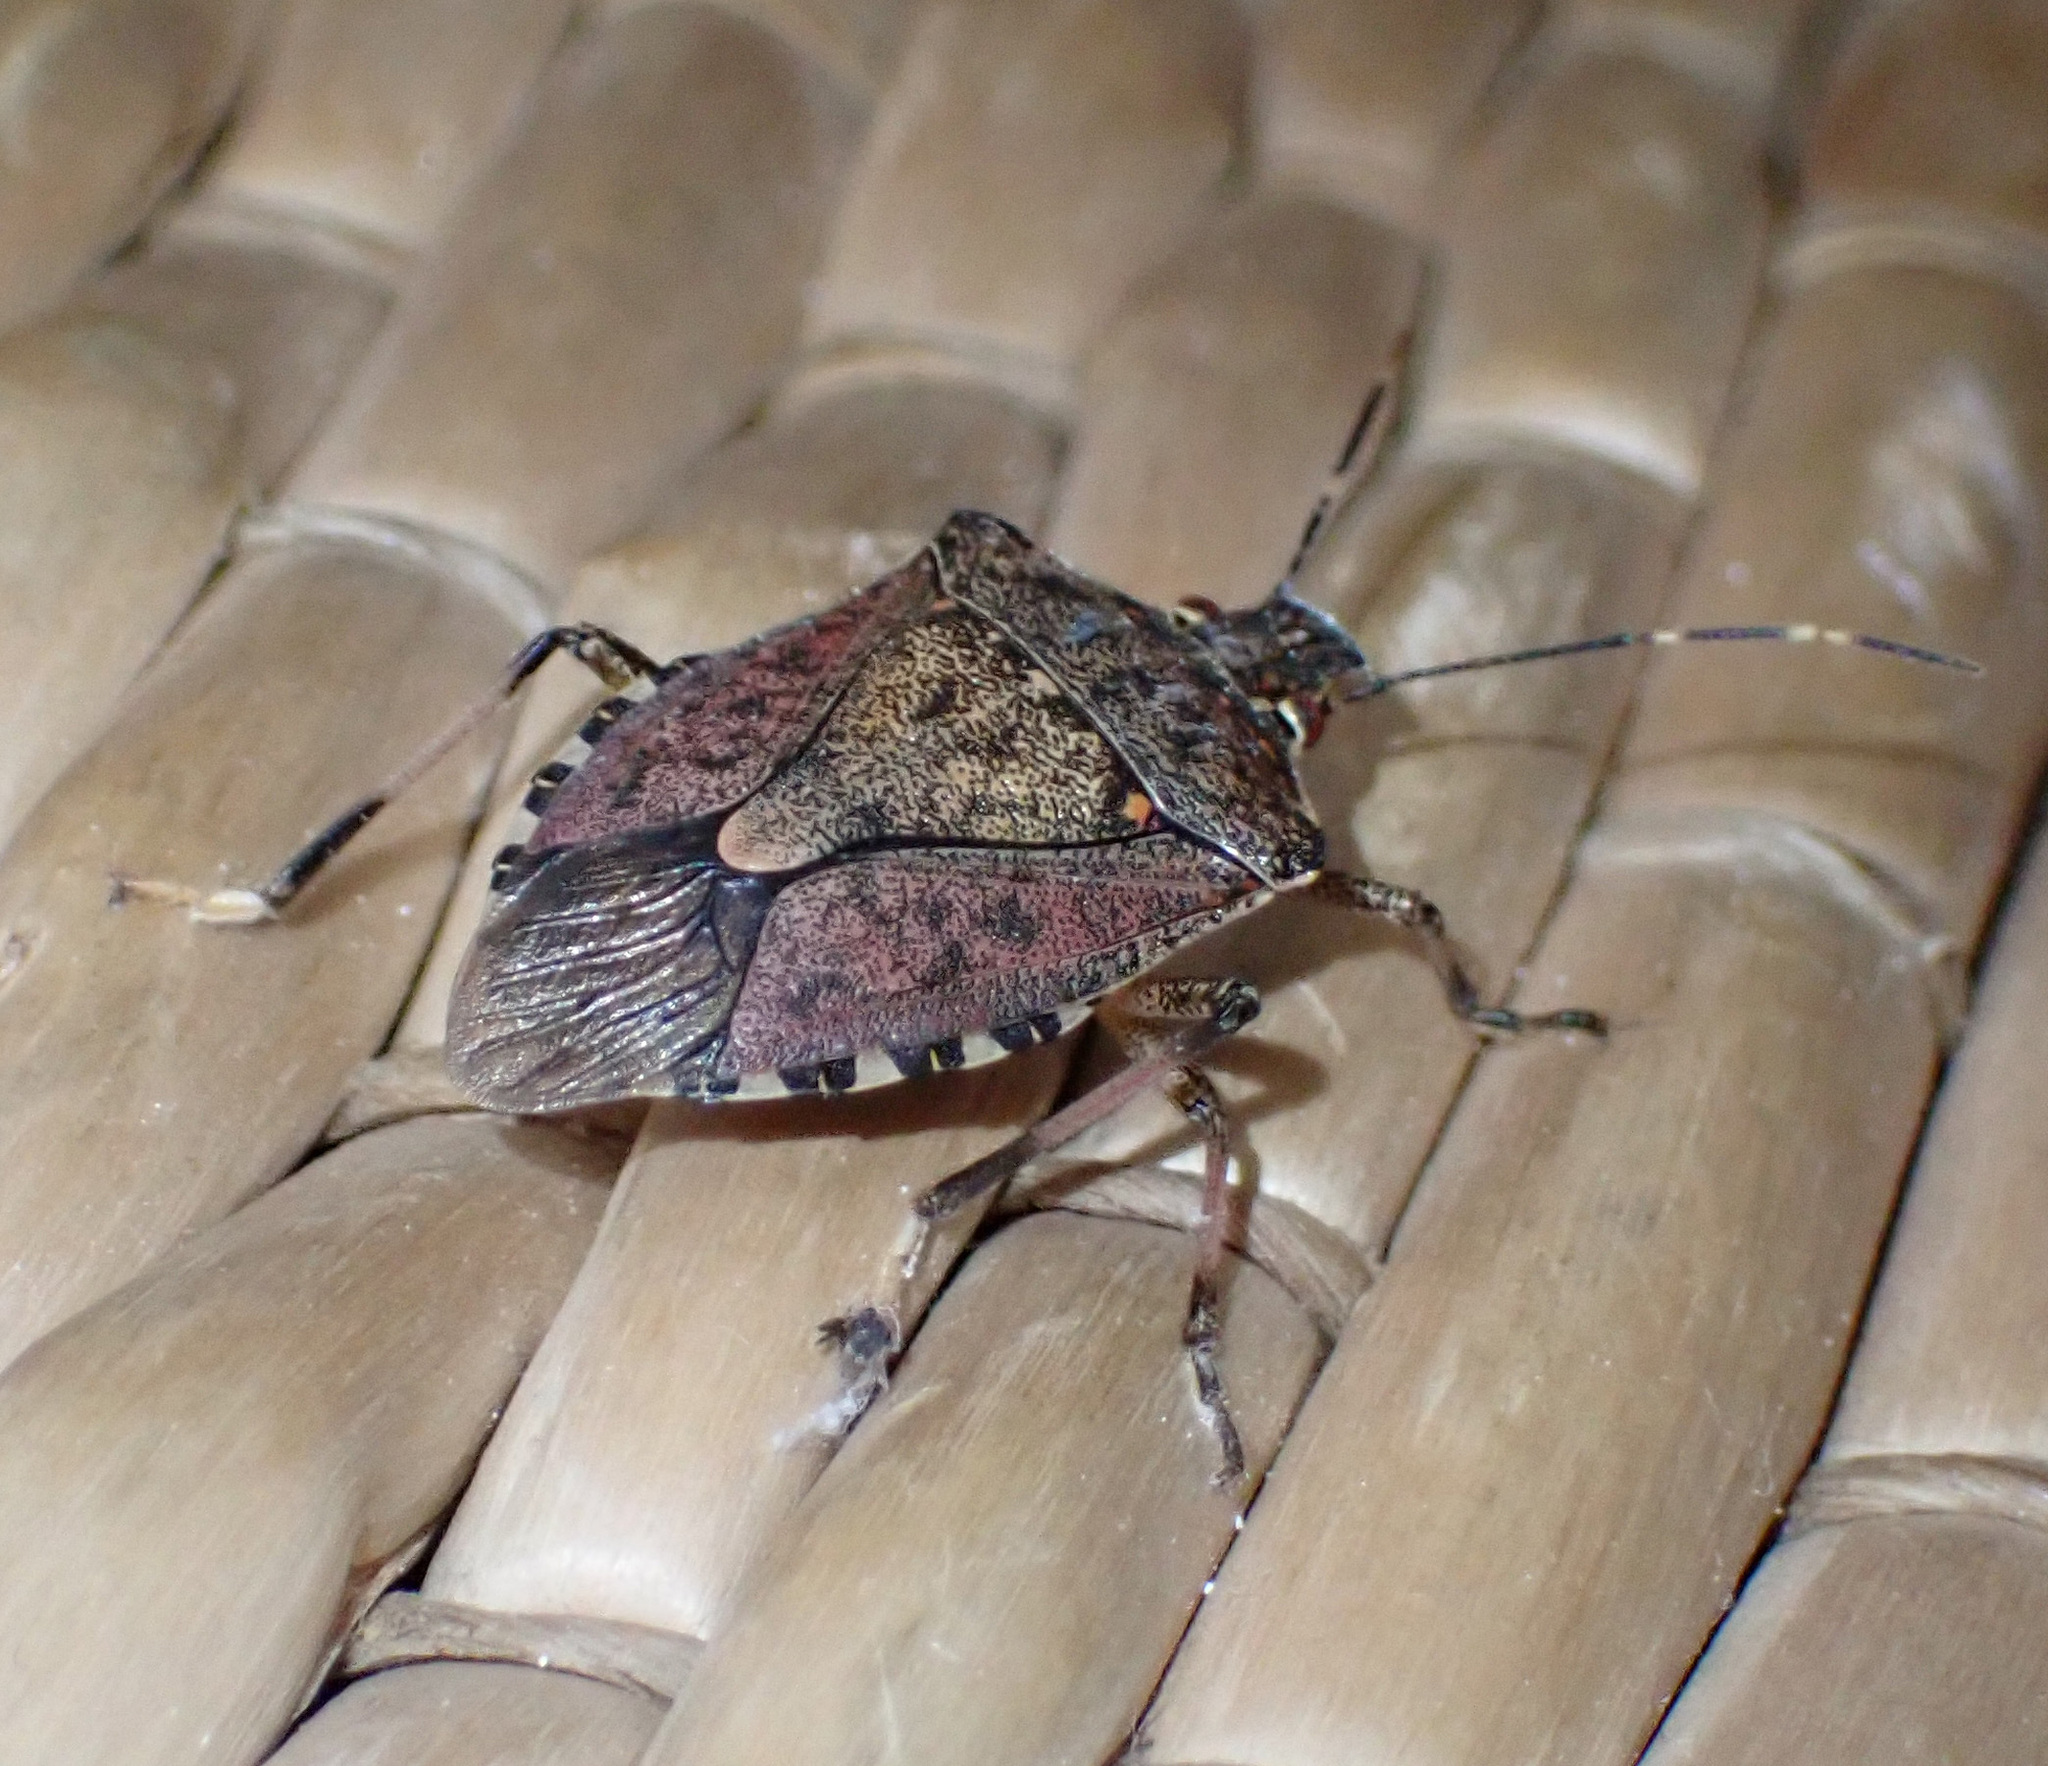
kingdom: Animalia
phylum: Arthropoda
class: Insecta
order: Hemiptera
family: Pentatomidae
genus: Halyomorpha
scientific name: Halyomorpha halys
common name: Brown marmorated stink bug
